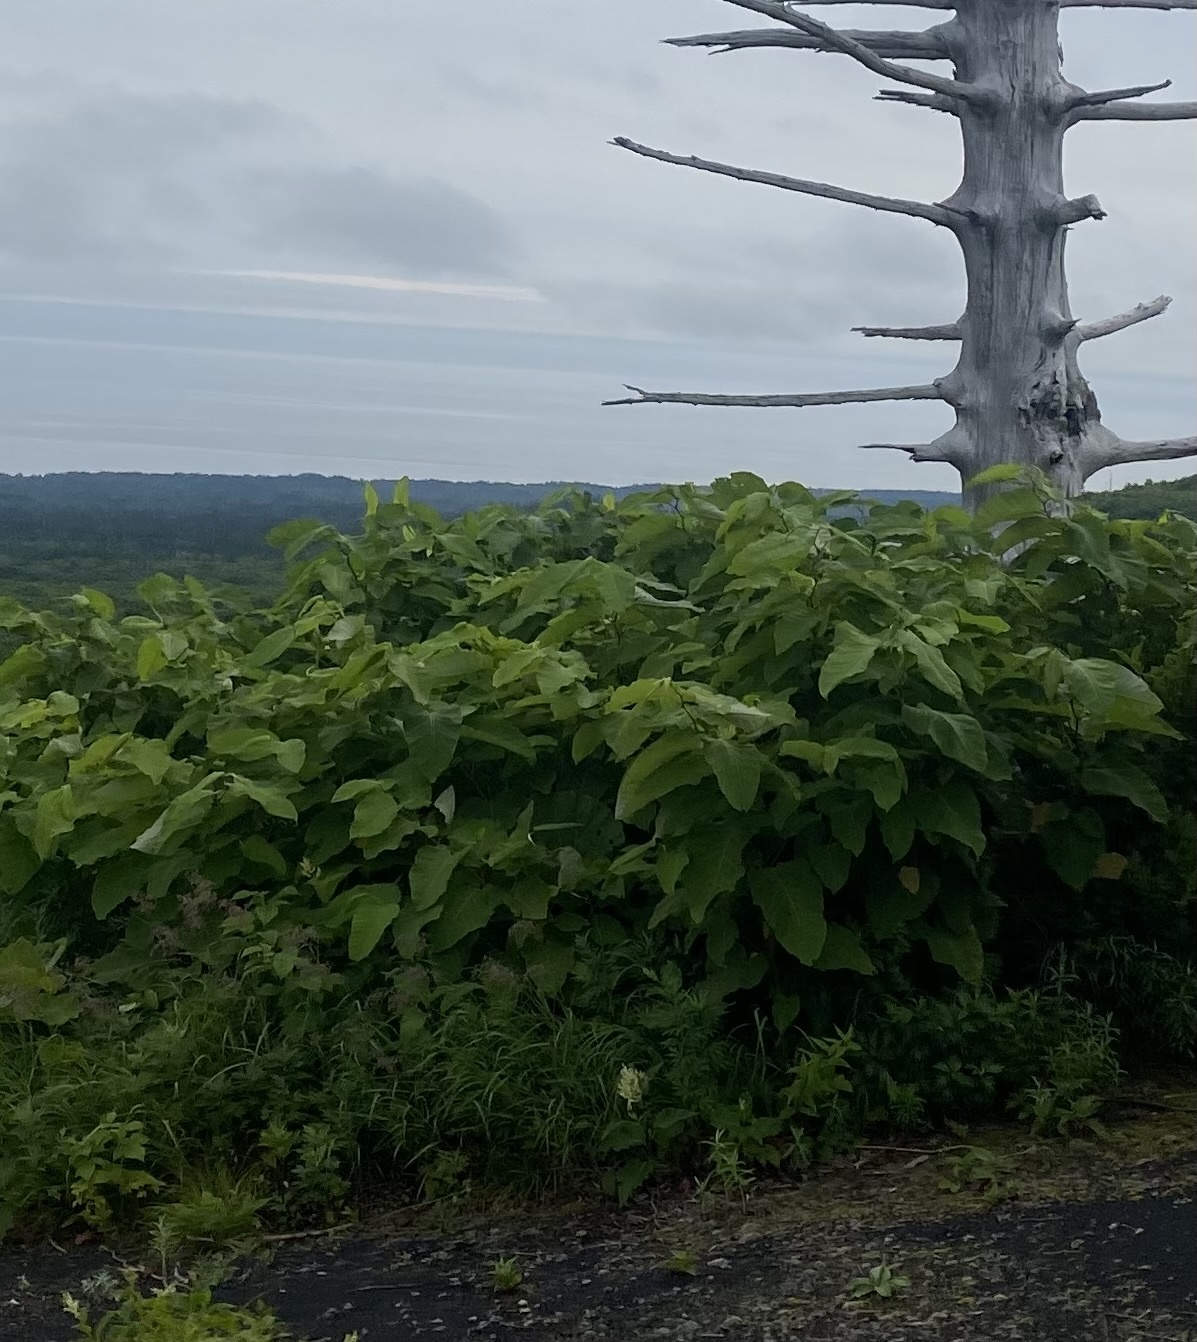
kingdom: Plantae
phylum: Tracheophyta
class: Magnoliopsida
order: Caryophyllales
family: Polygonaceae
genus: Reynoutria
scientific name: Reynoutria sachalinensis
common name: Giant knotweed
